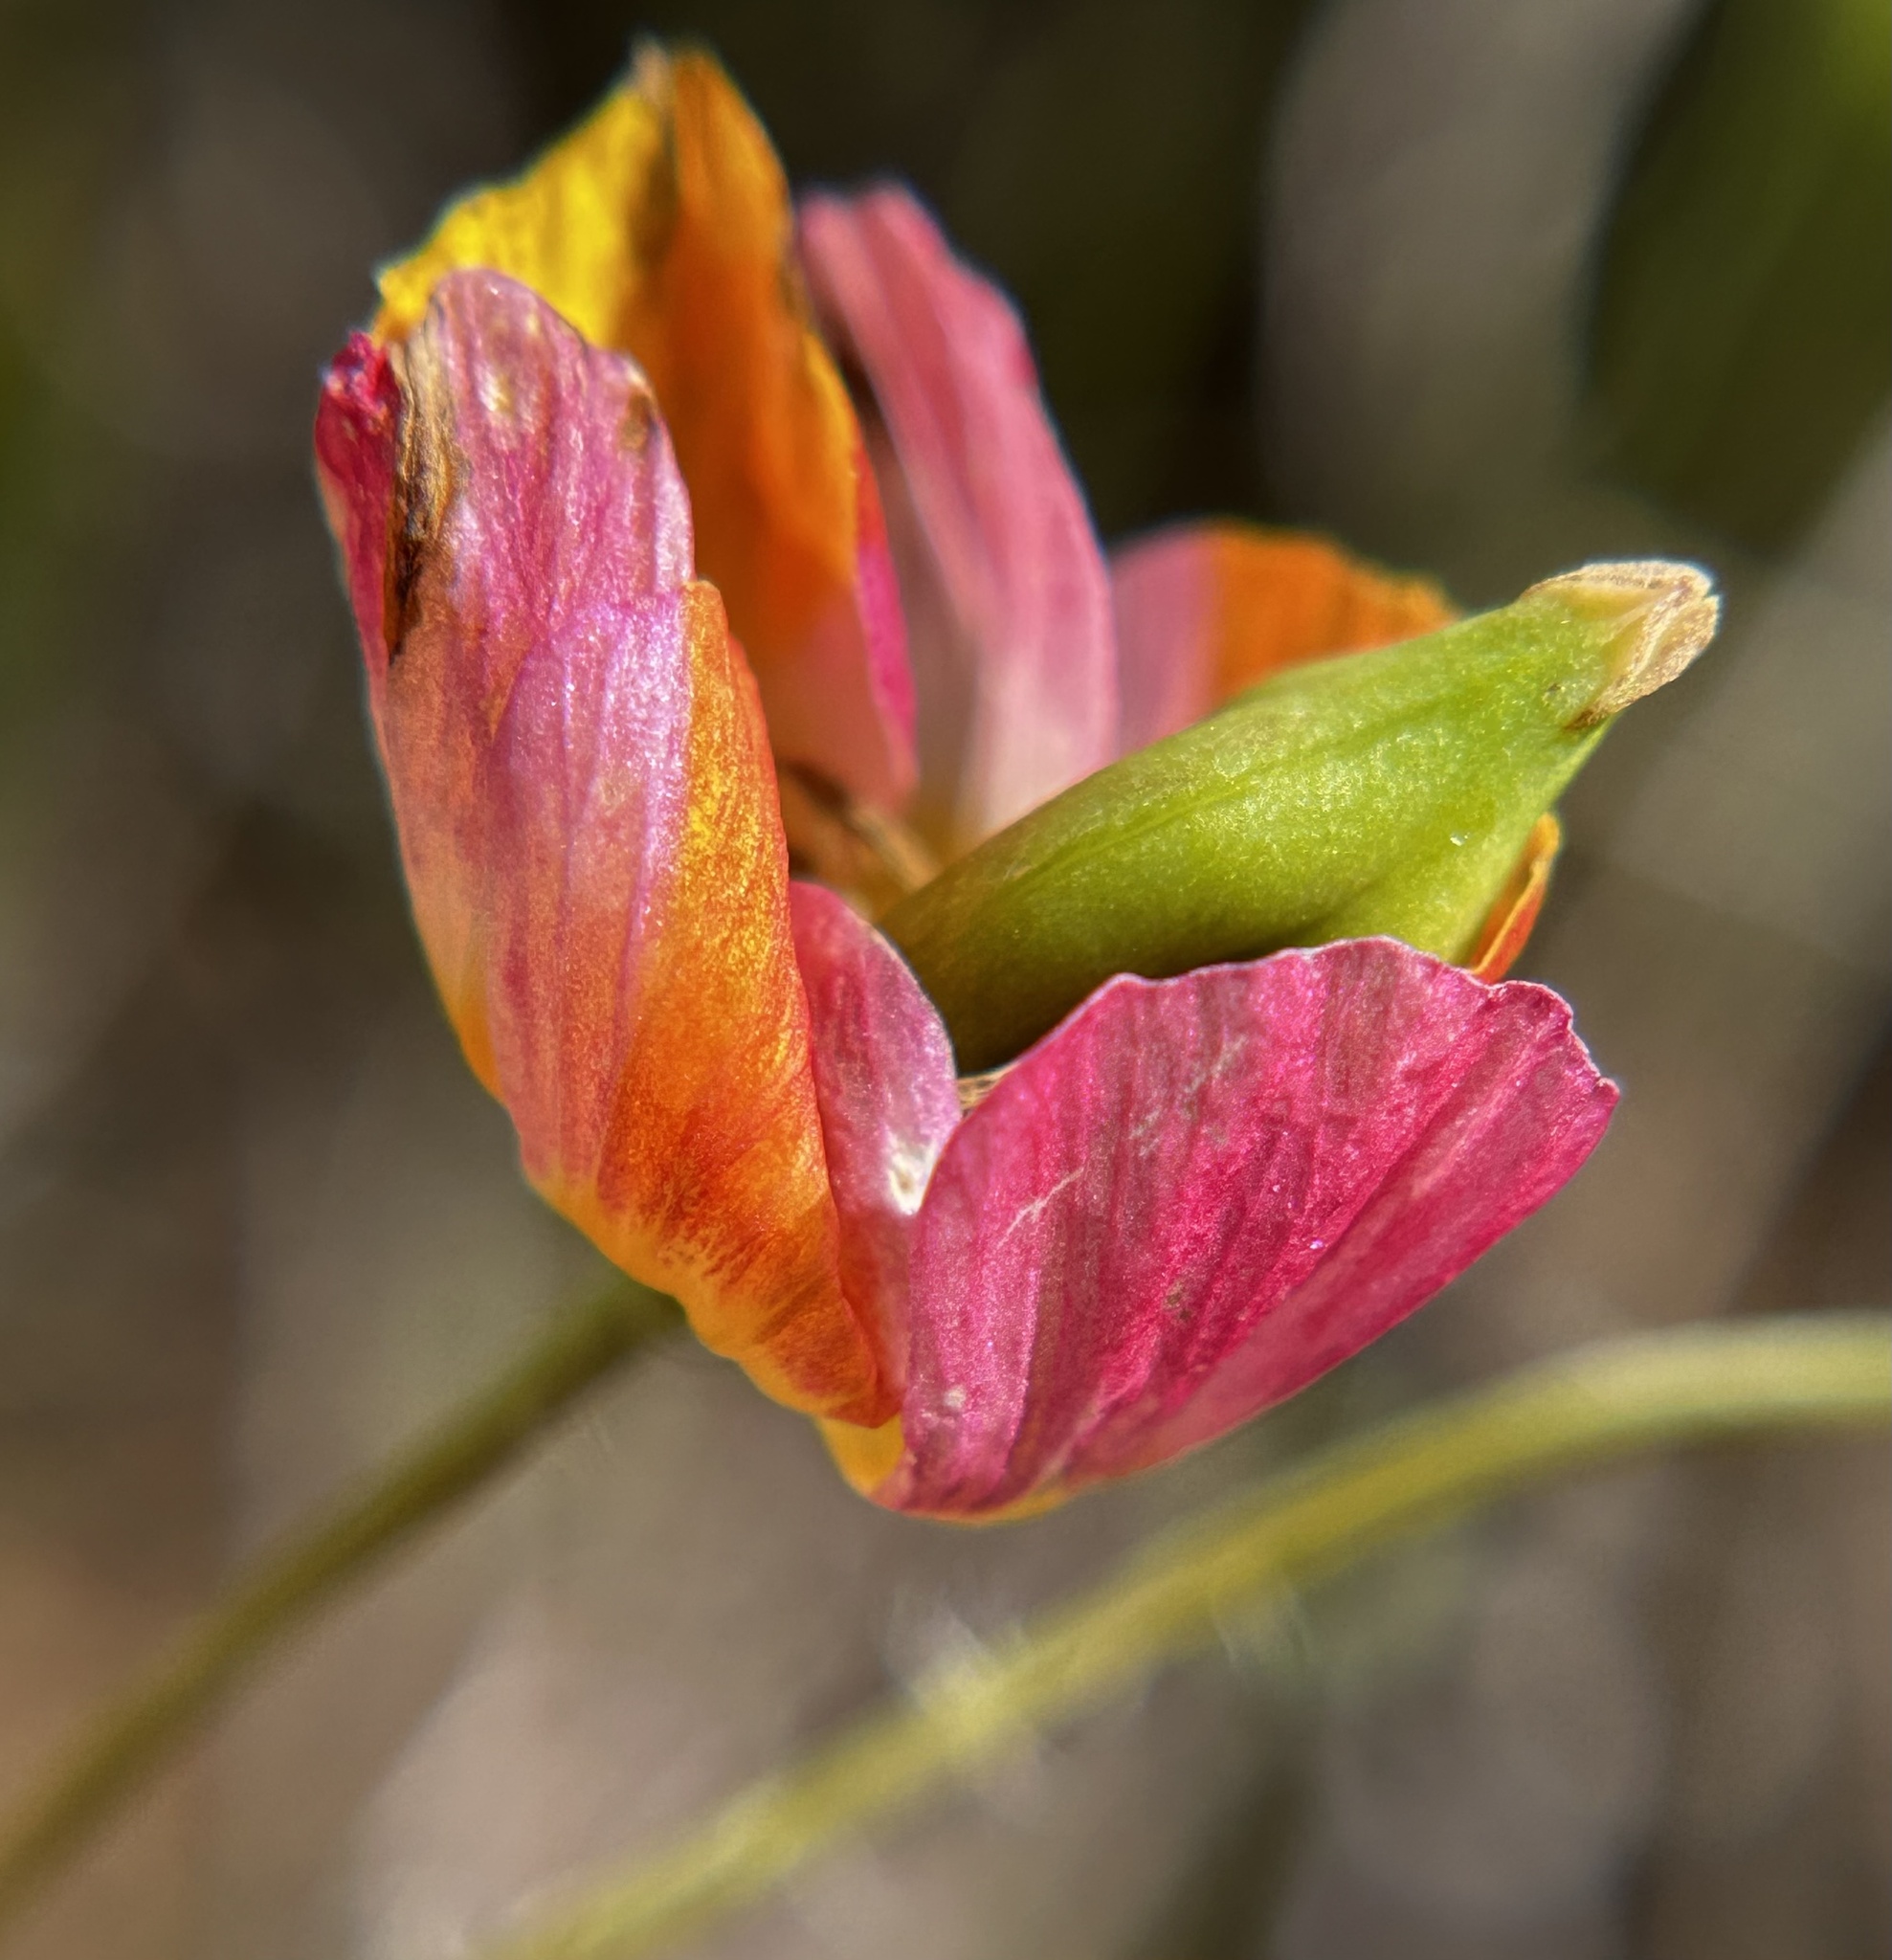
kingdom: Plantae
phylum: Tracheophyta
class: Magnoliopsida
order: Ranunculales
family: Papaveraceae
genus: Platystigma
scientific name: Platystigma lineare
